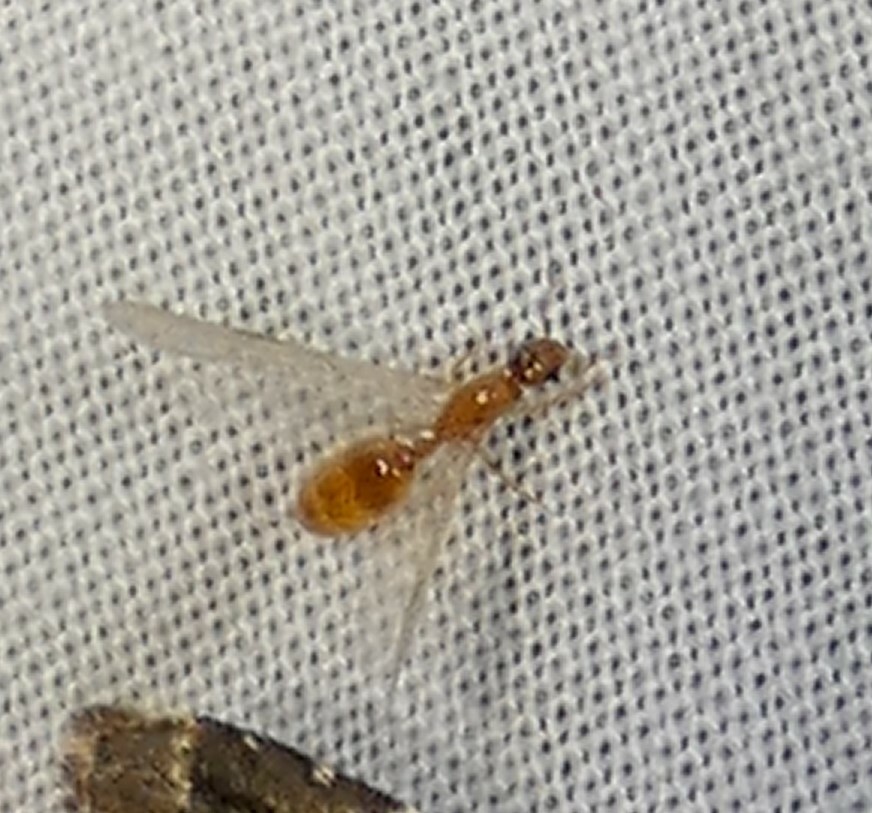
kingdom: Animalia
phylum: Arthropoda
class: Insecta
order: Hymenoptera
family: Formicidae
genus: Solenopsis
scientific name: Solenopsis carolinensis
